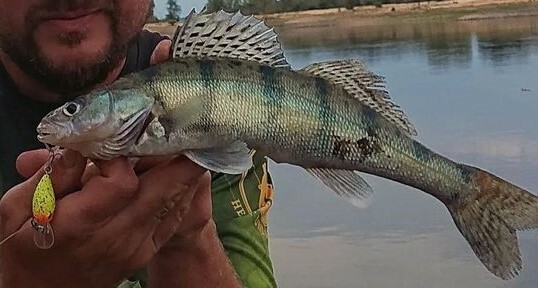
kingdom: Animalia
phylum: Chordata
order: Perciformes
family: Percidae
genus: Sander
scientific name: Sander volgensis
